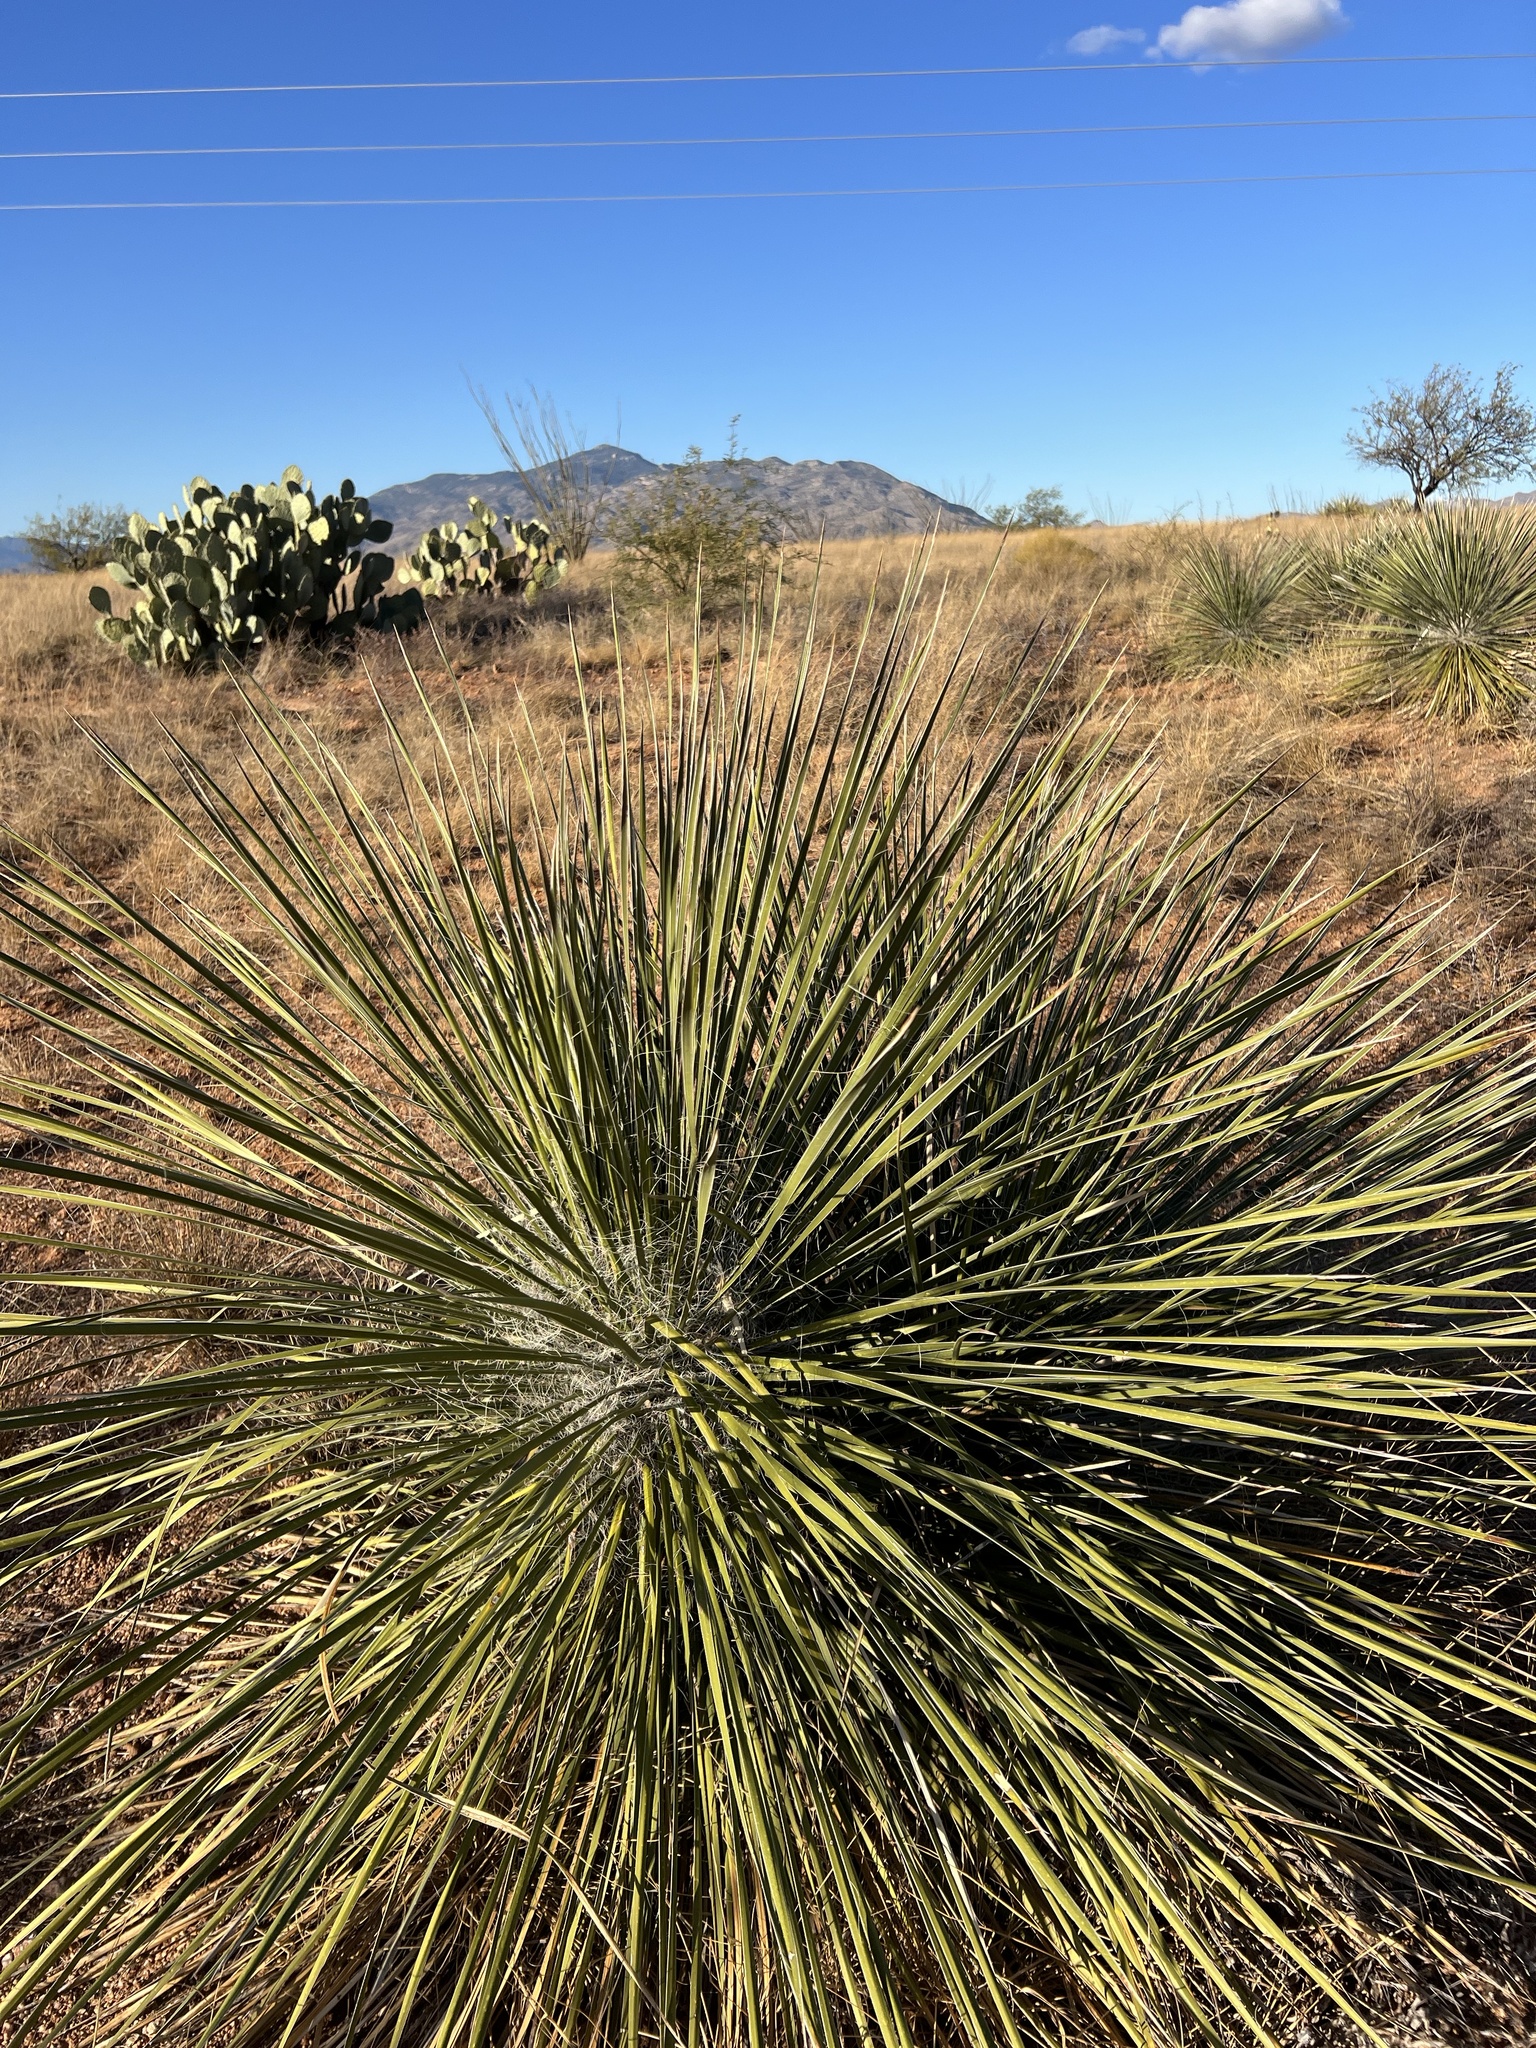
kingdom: Plantae
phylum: Tracheophyta
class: Liliopsida
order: Asparagales
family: Asparagaceae
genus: Yucca
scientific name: Yucca elata
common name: Palmella
